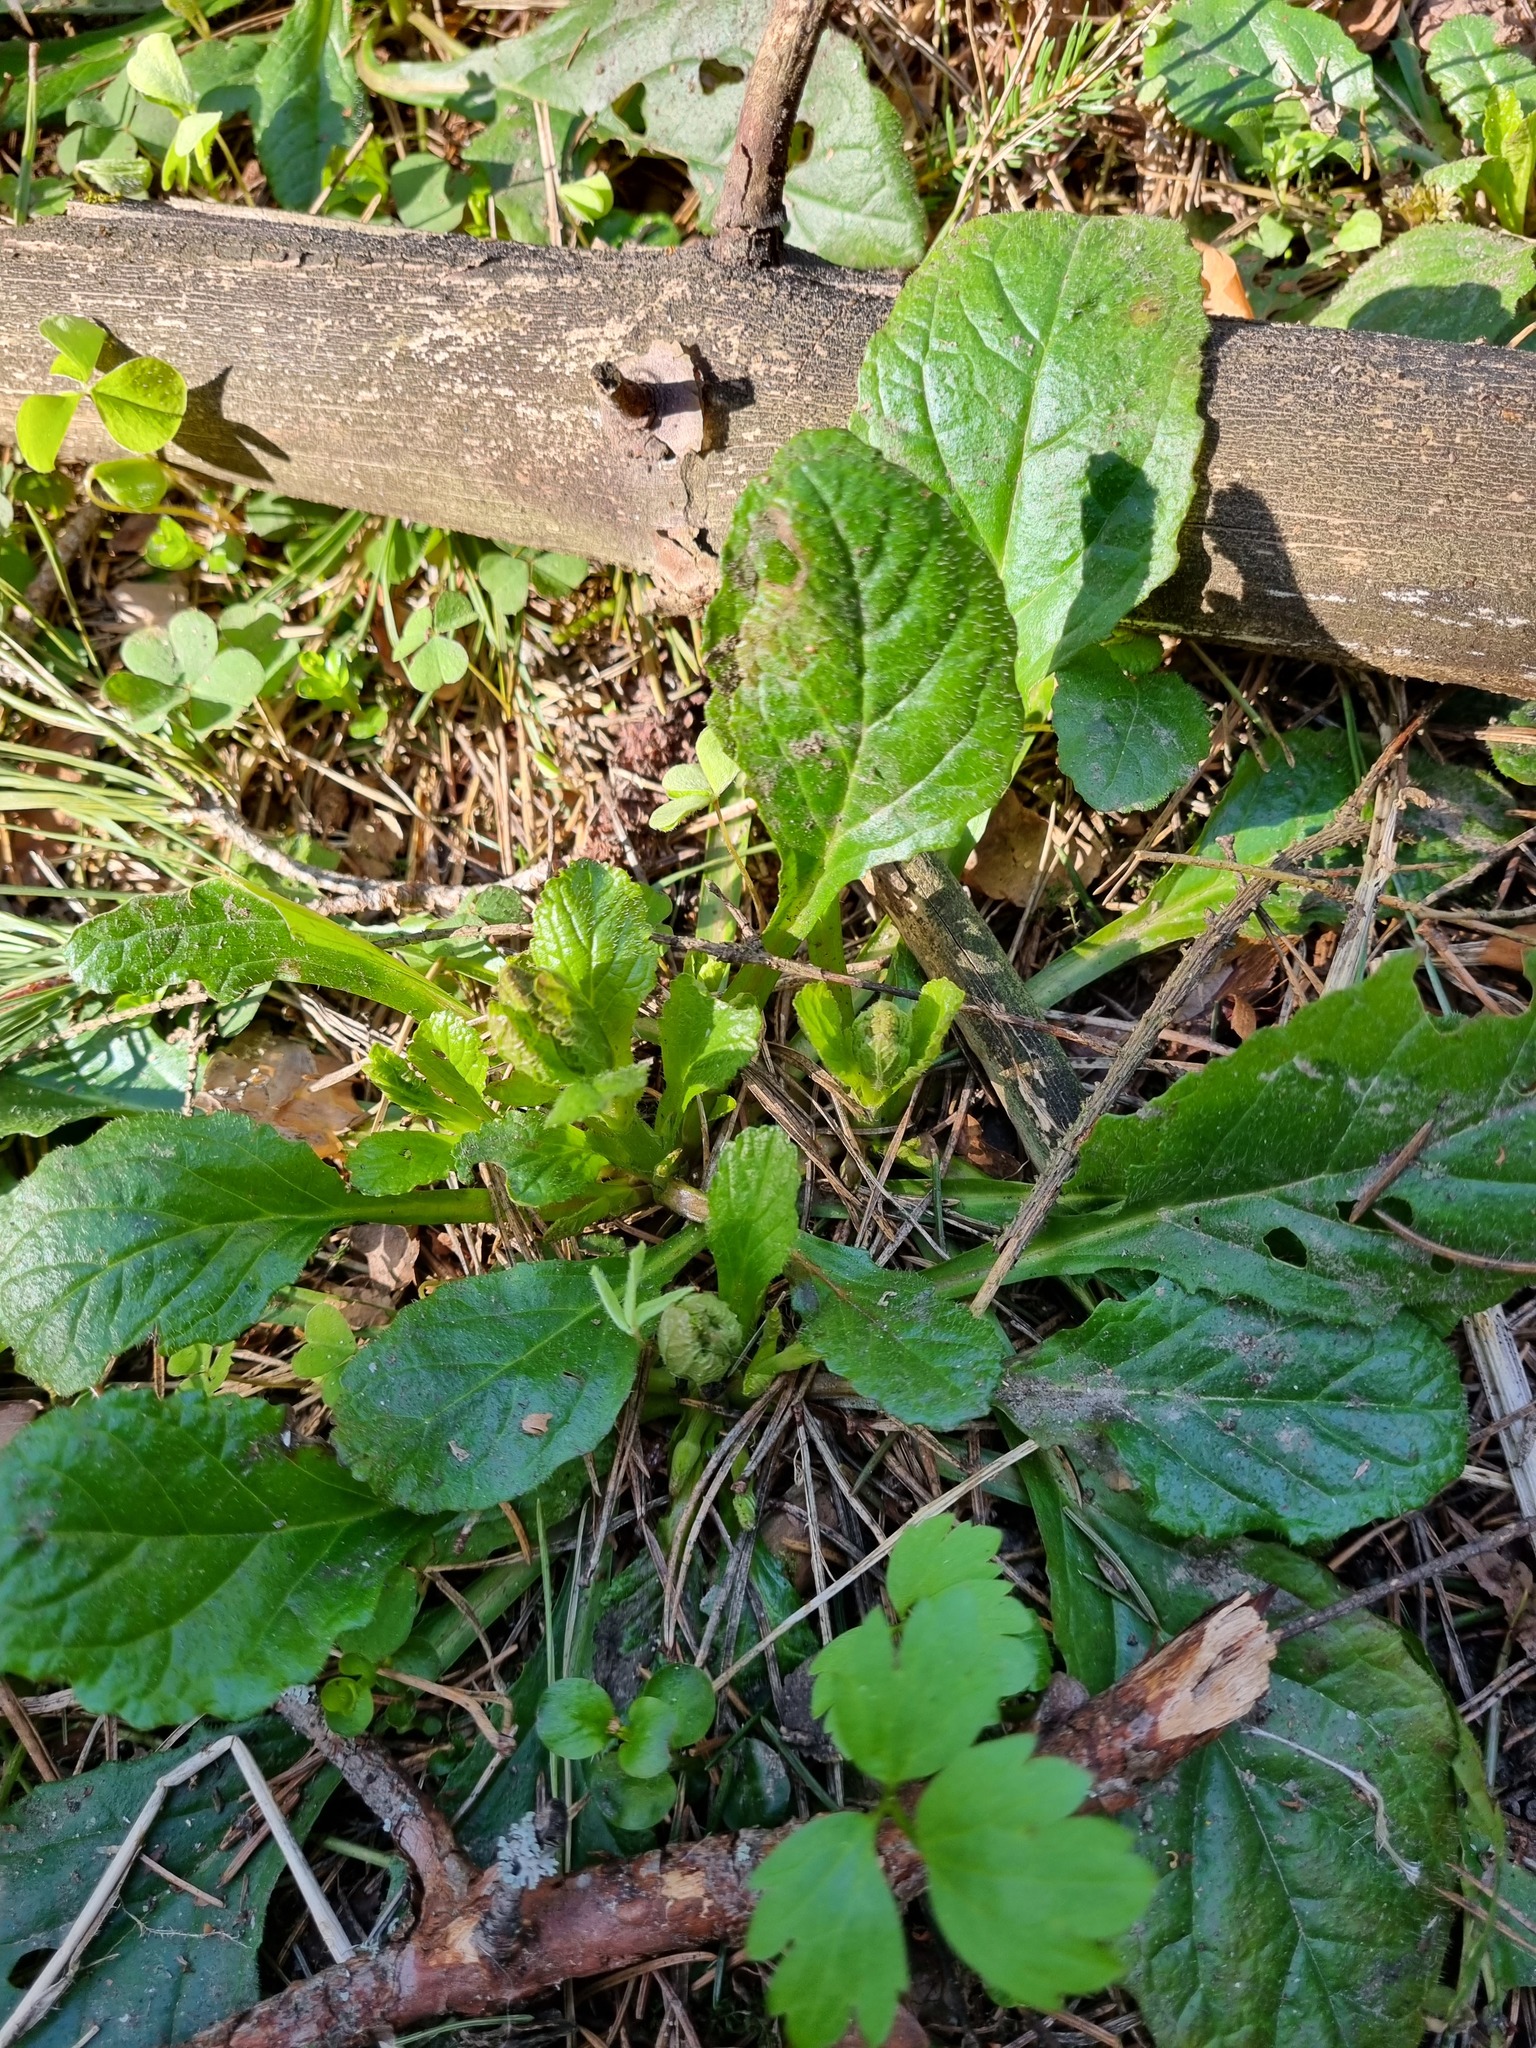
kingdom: Plantae
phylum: Tracheophyta
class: Magnoliopsida
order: Lamiales
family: Lamiaceae
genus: Ajuga
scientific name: Ajuga reptans
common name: Bugle
